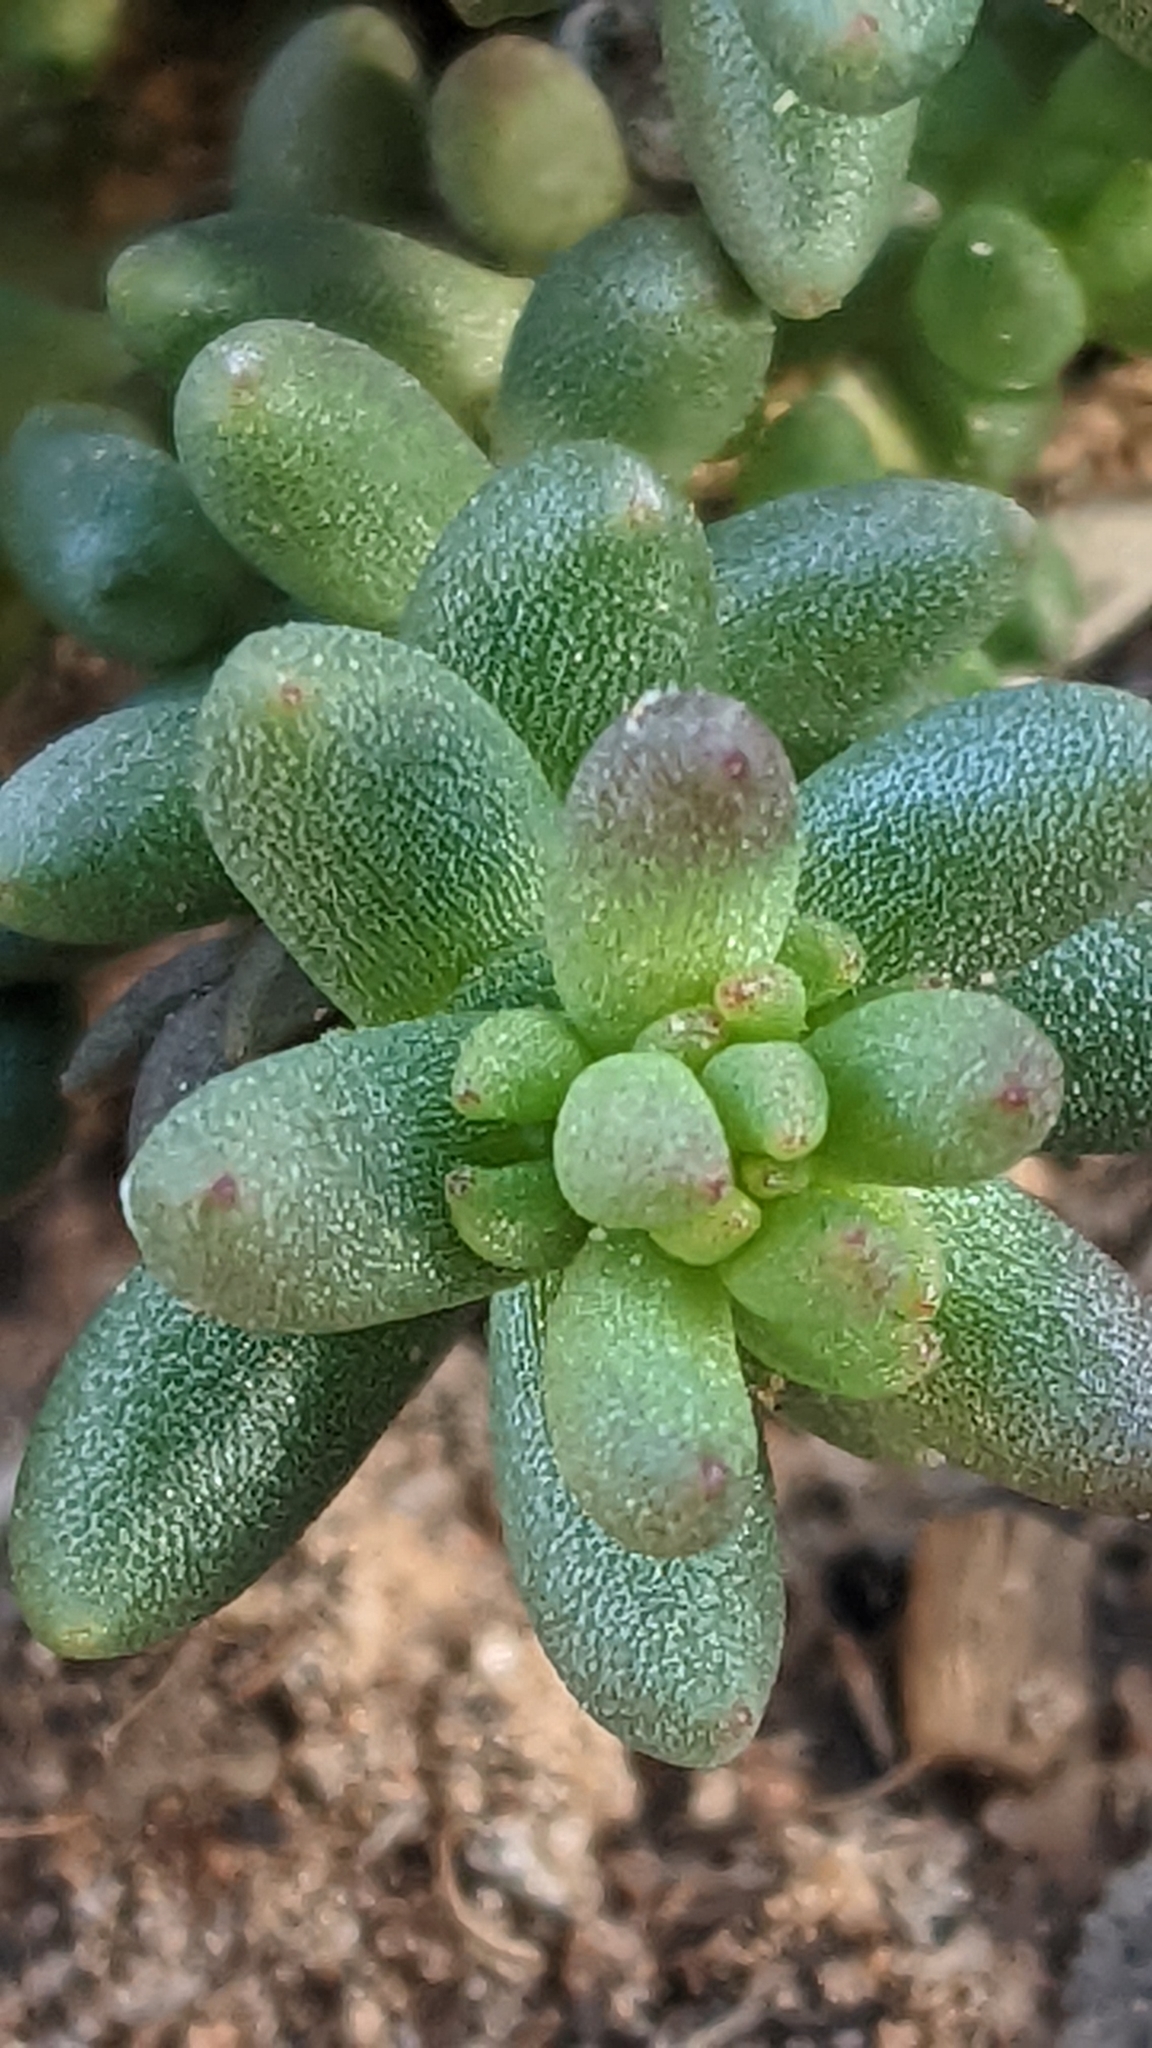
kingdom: Plantae
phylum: Tracheophyta
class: Magnoliopsida
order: Saxifragales
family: Crassulaceae
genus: Sedum
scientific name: Sedum lanceolatum
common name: Common stonecrop
